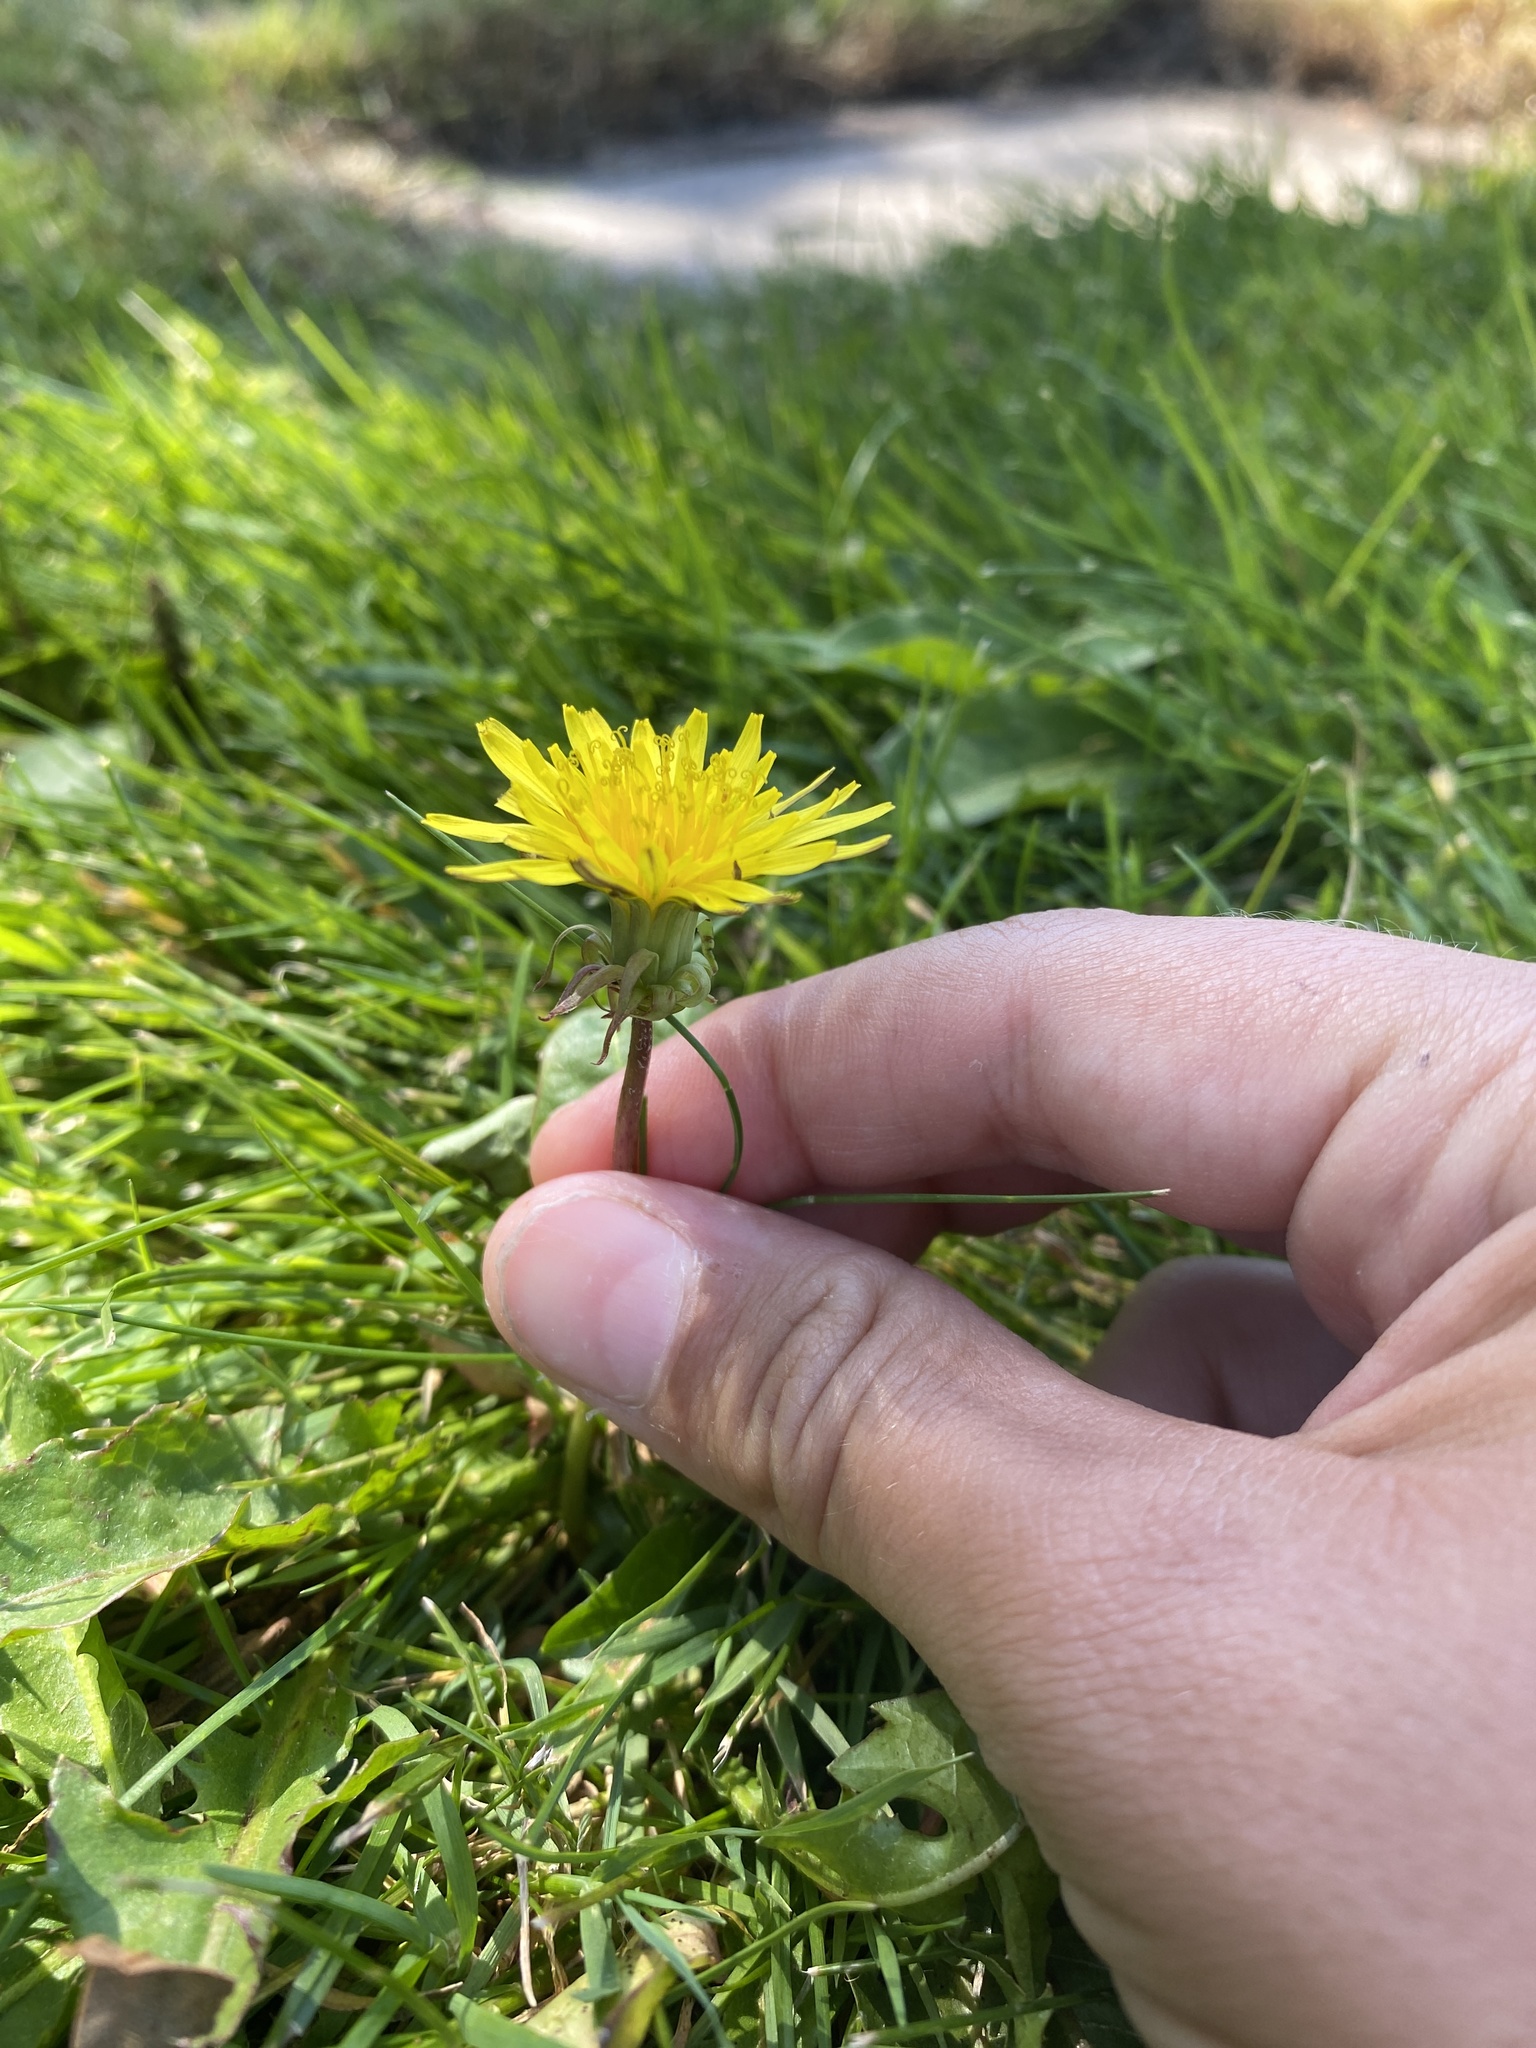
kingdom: Plantae
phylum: Tracheophyta
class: Magnoliopsida
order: Asterales
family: Asteraceae
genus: Taraxacum
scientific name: Taraxacum officinale
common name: Common dandelion
